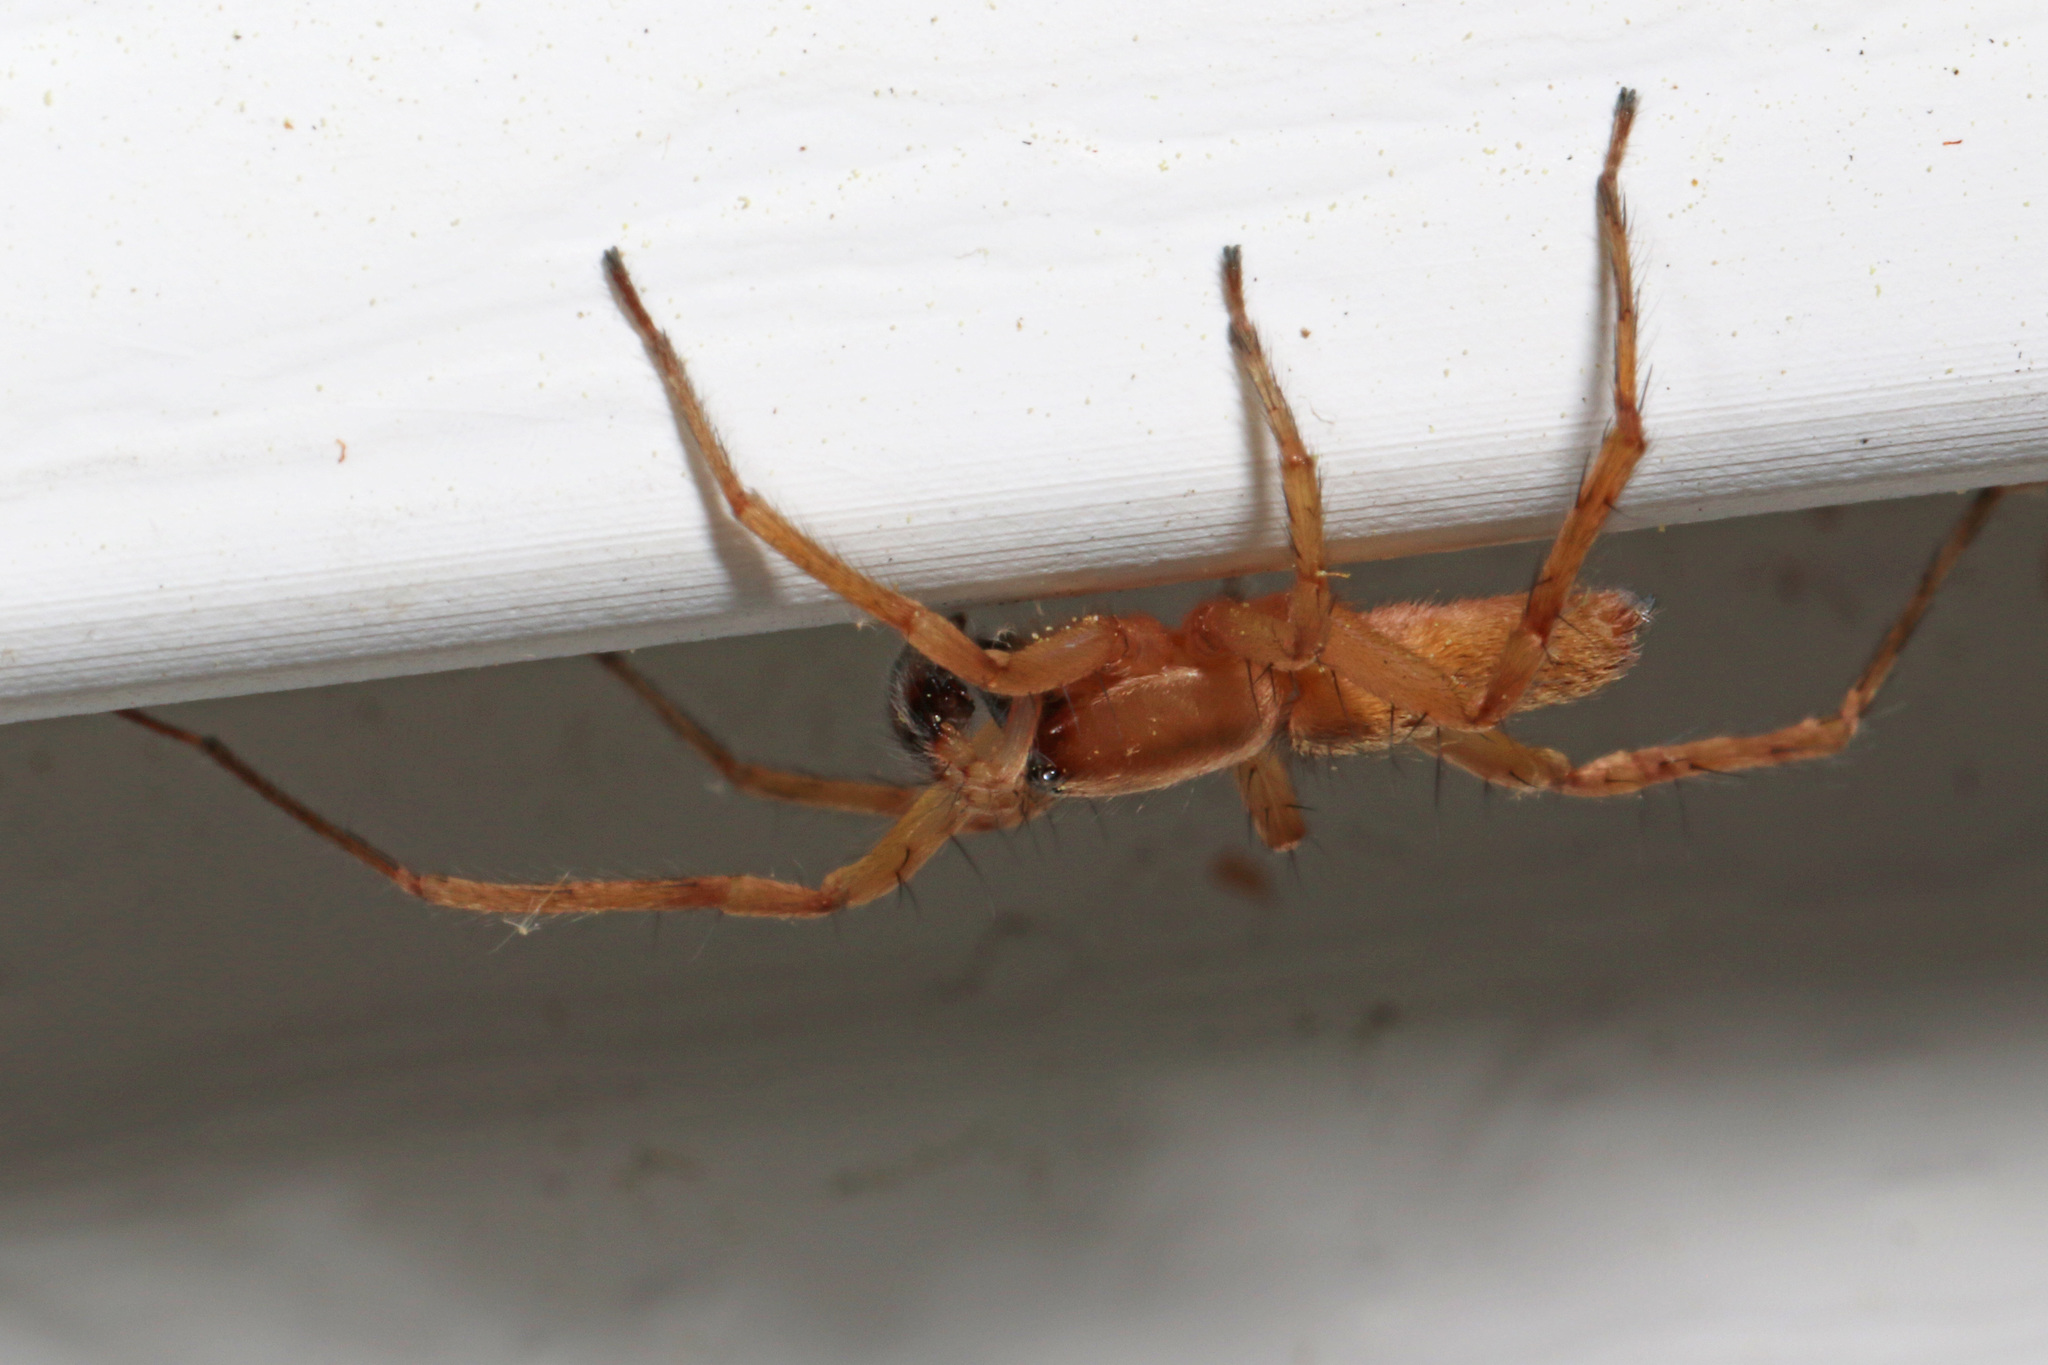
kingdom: Animalia
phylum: Arthropoda
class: Arachnida
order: Araneae
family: Anyphaenidae
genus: Hibana
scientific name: Hibana gracilis
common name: Garden ghost spider
